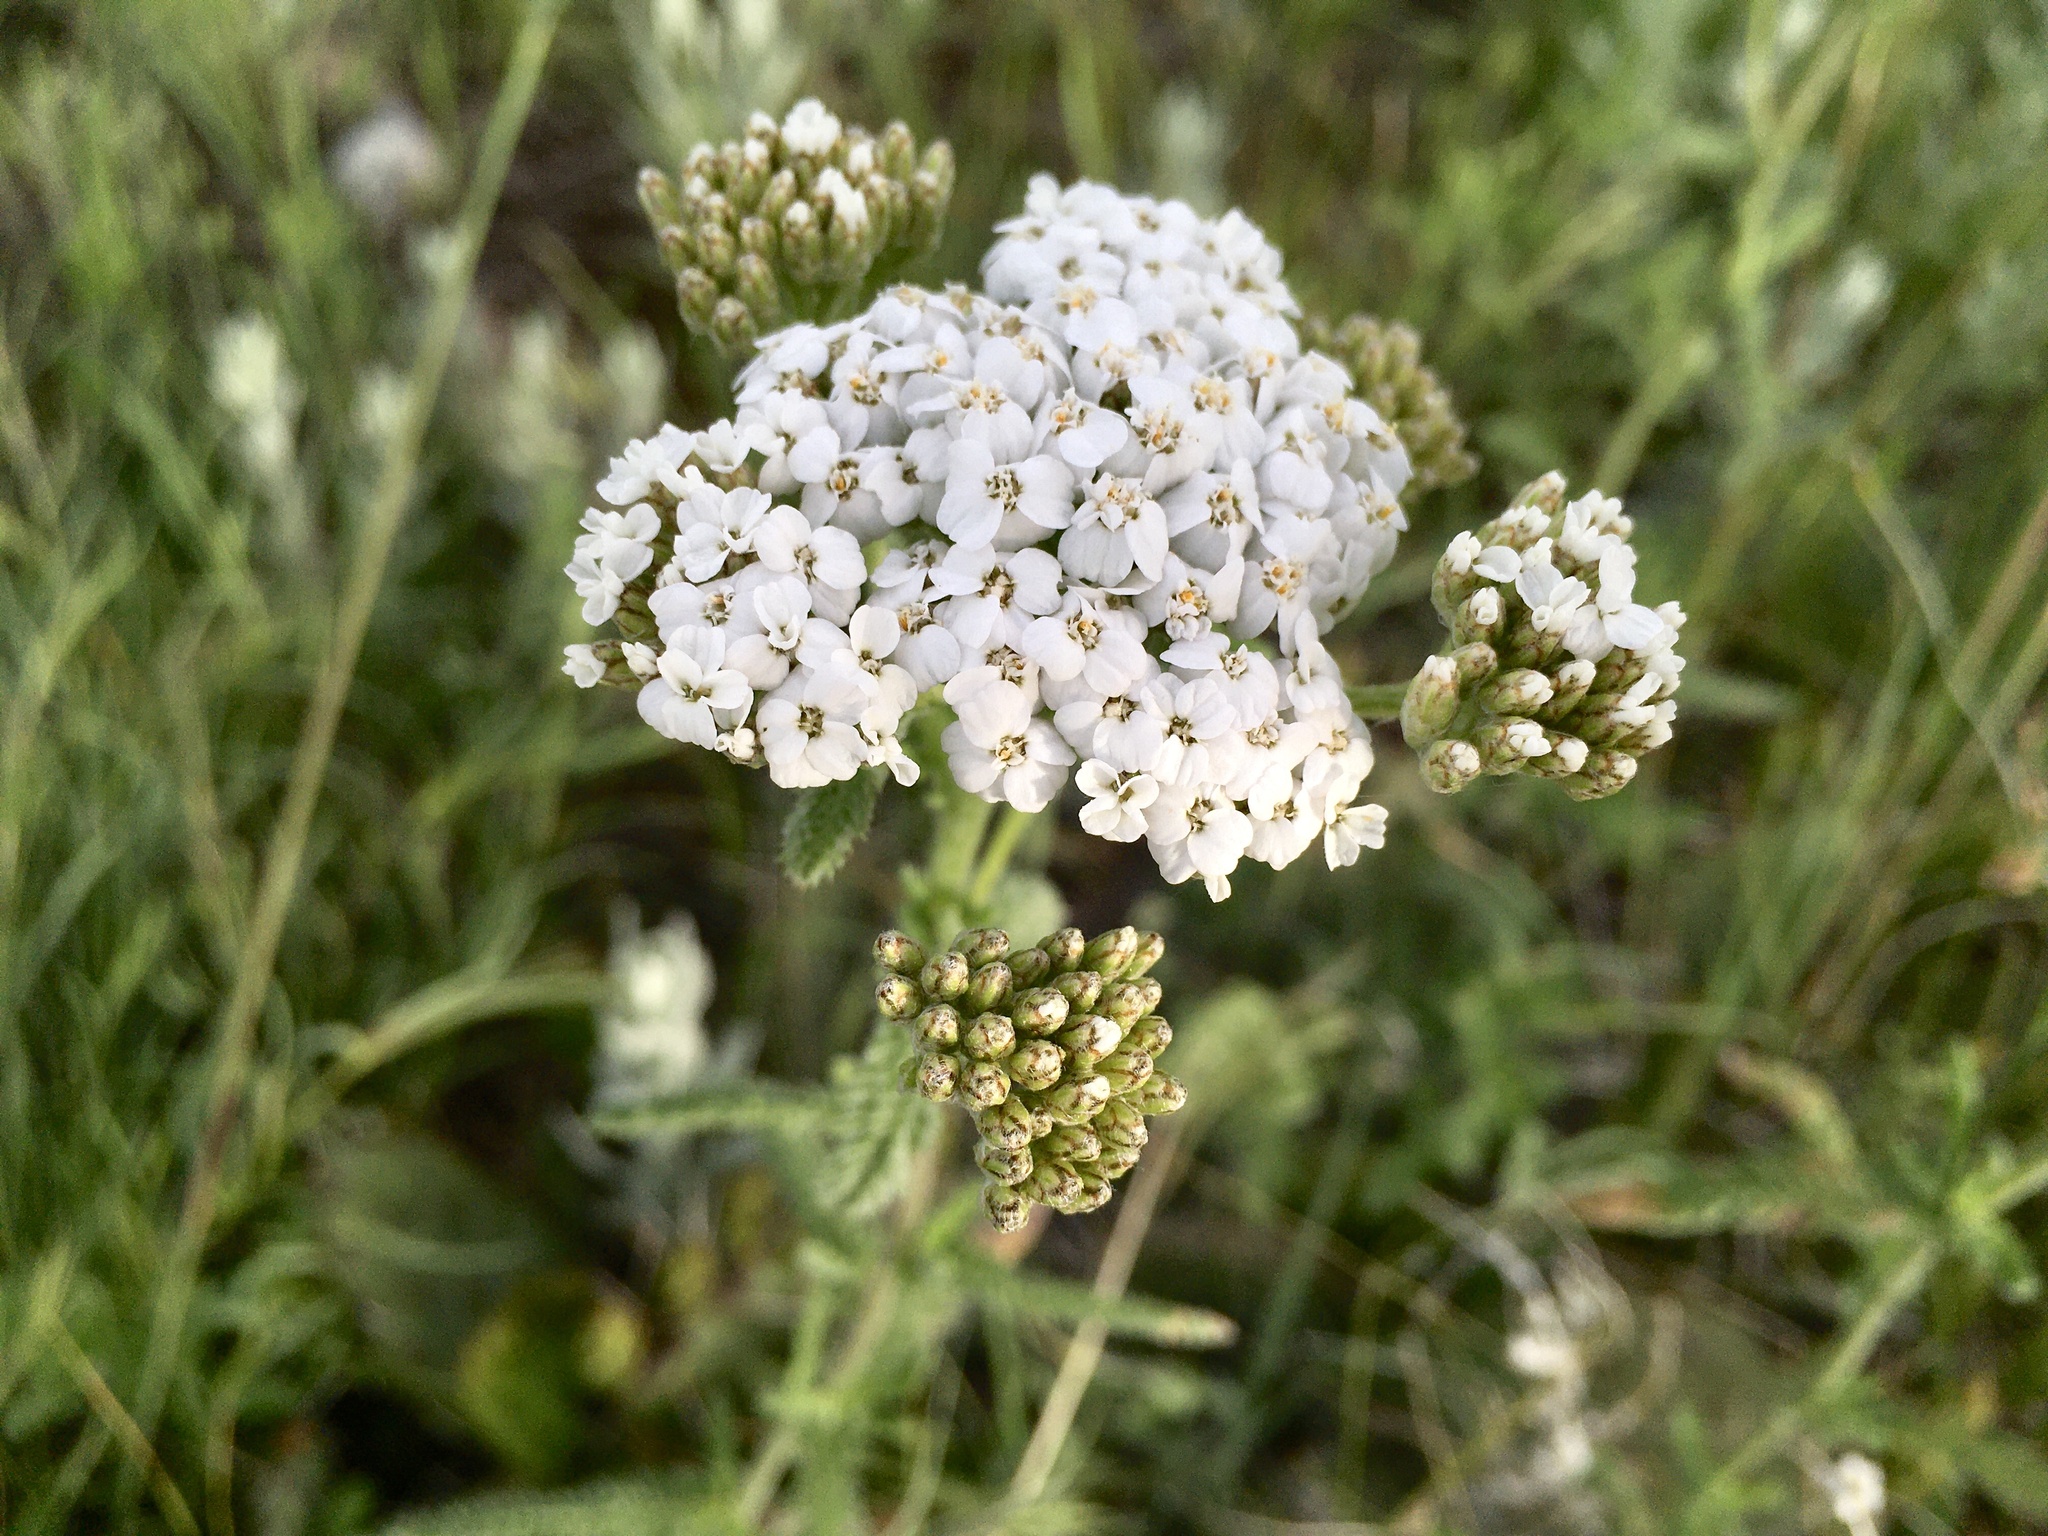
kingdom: Plantae
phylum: Tracheophyta
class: Magnoliopsida
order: Asterales
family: Asteraceae
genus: Achillea
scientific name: Achillea millefolium
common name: Yarrow
